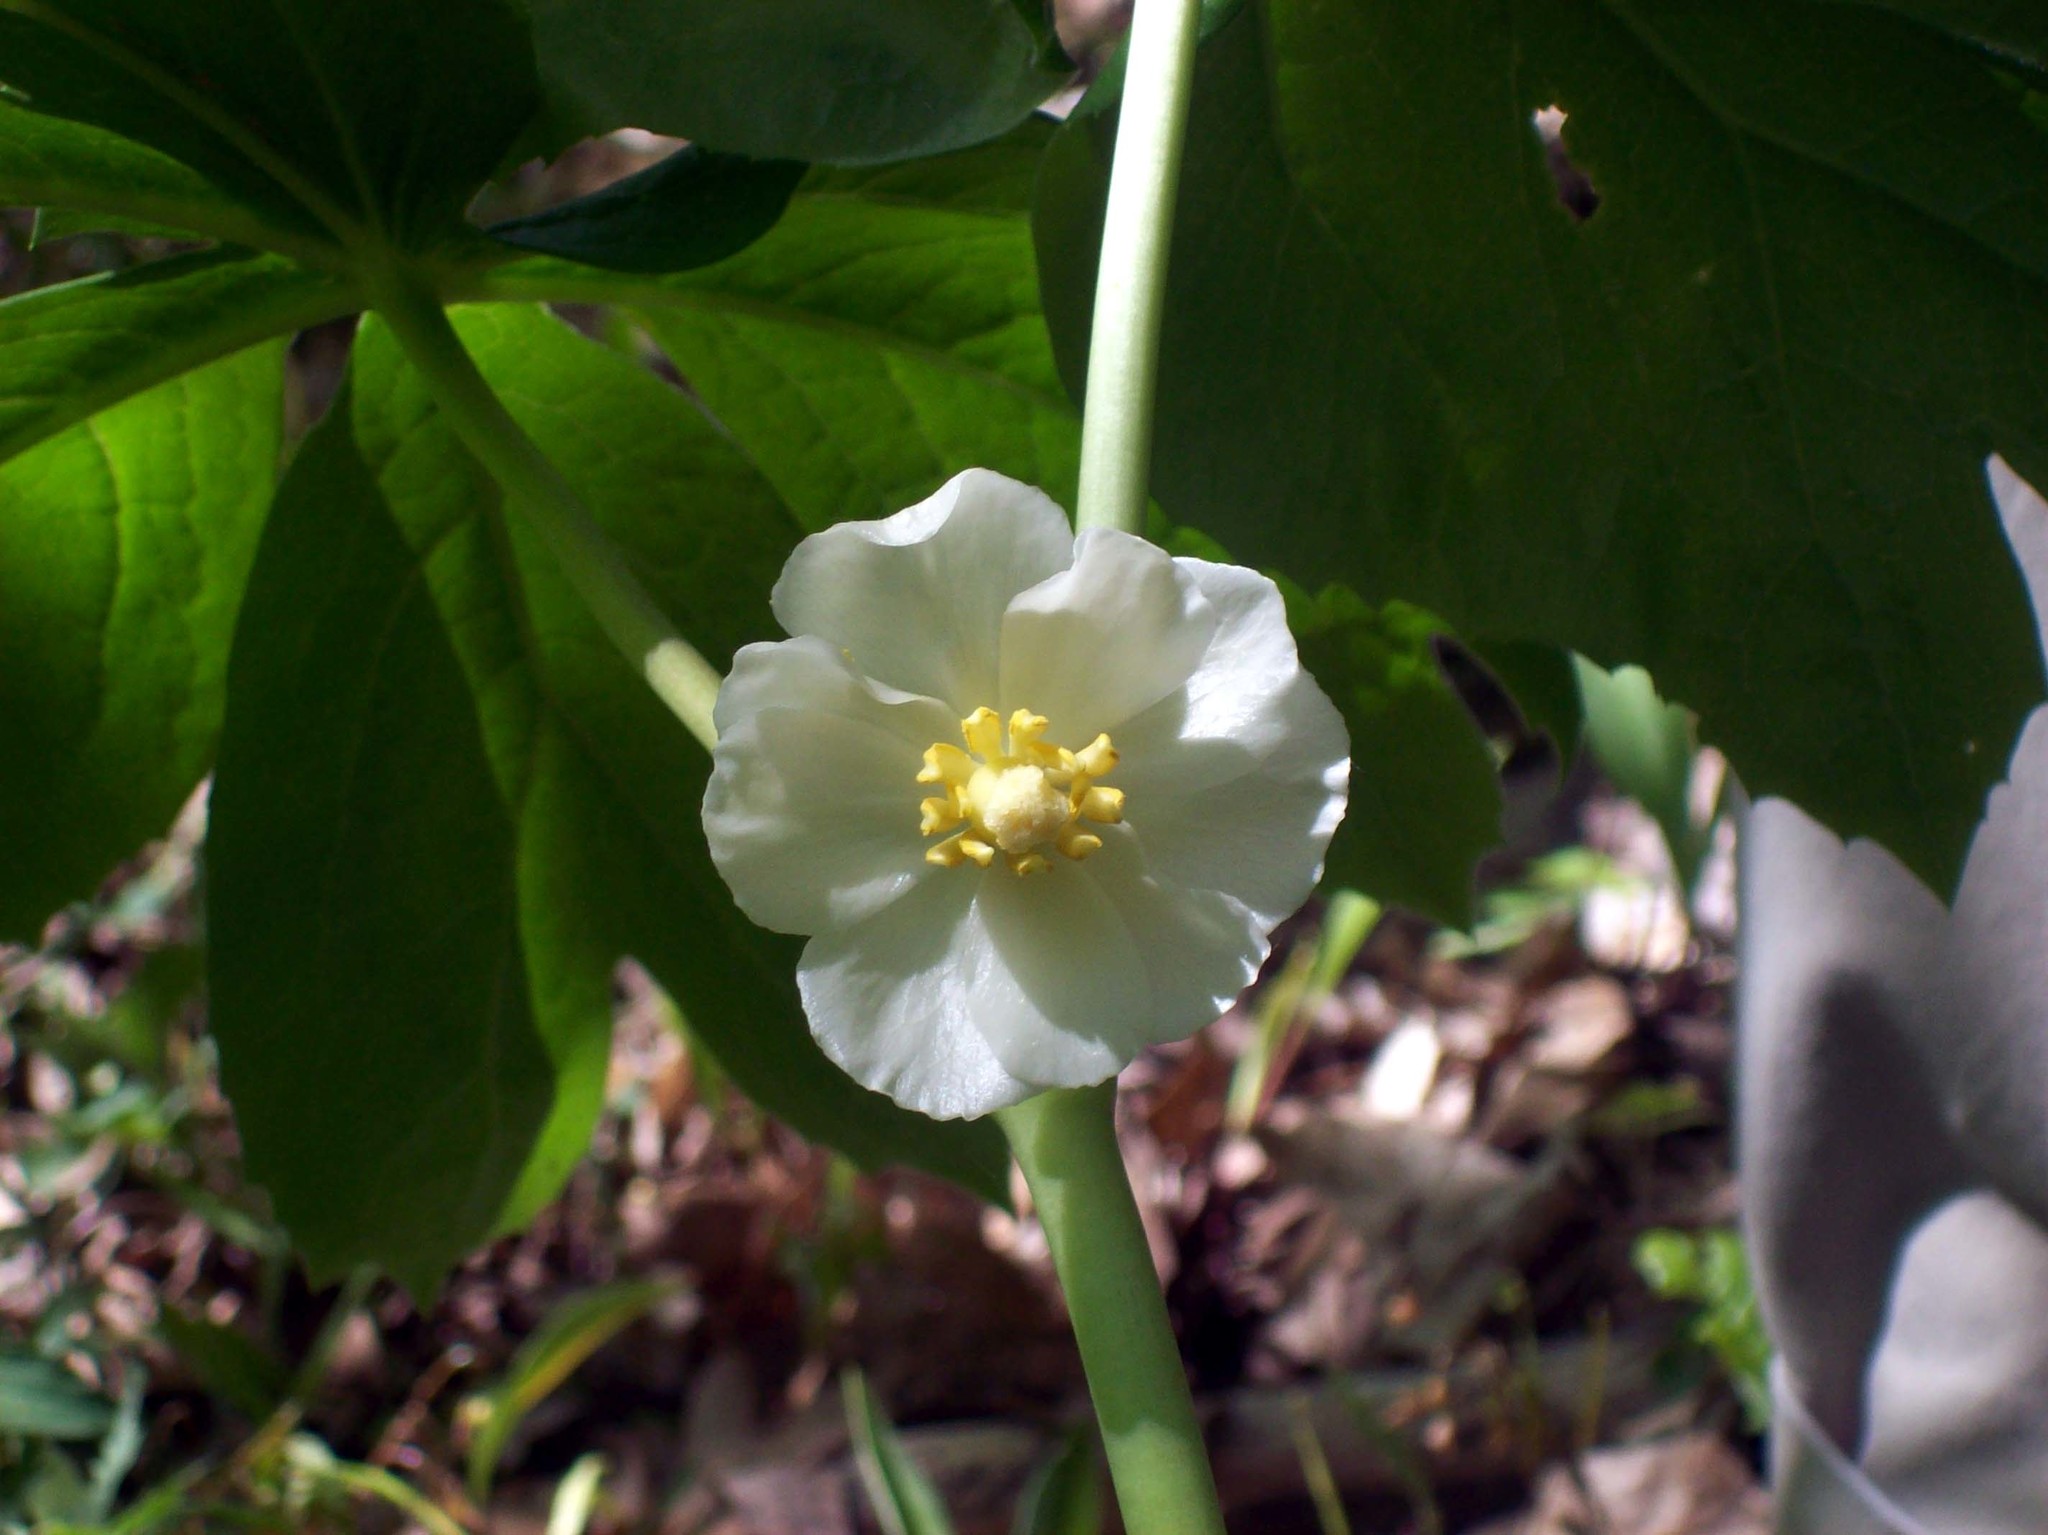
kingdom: Plantae
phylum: Tracheophyta
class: Magnoliopsida
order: Ranunculales
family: Berberidaceae
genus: Podophyllum
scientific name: Podophyllum peltatum
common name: Wild mandrake
